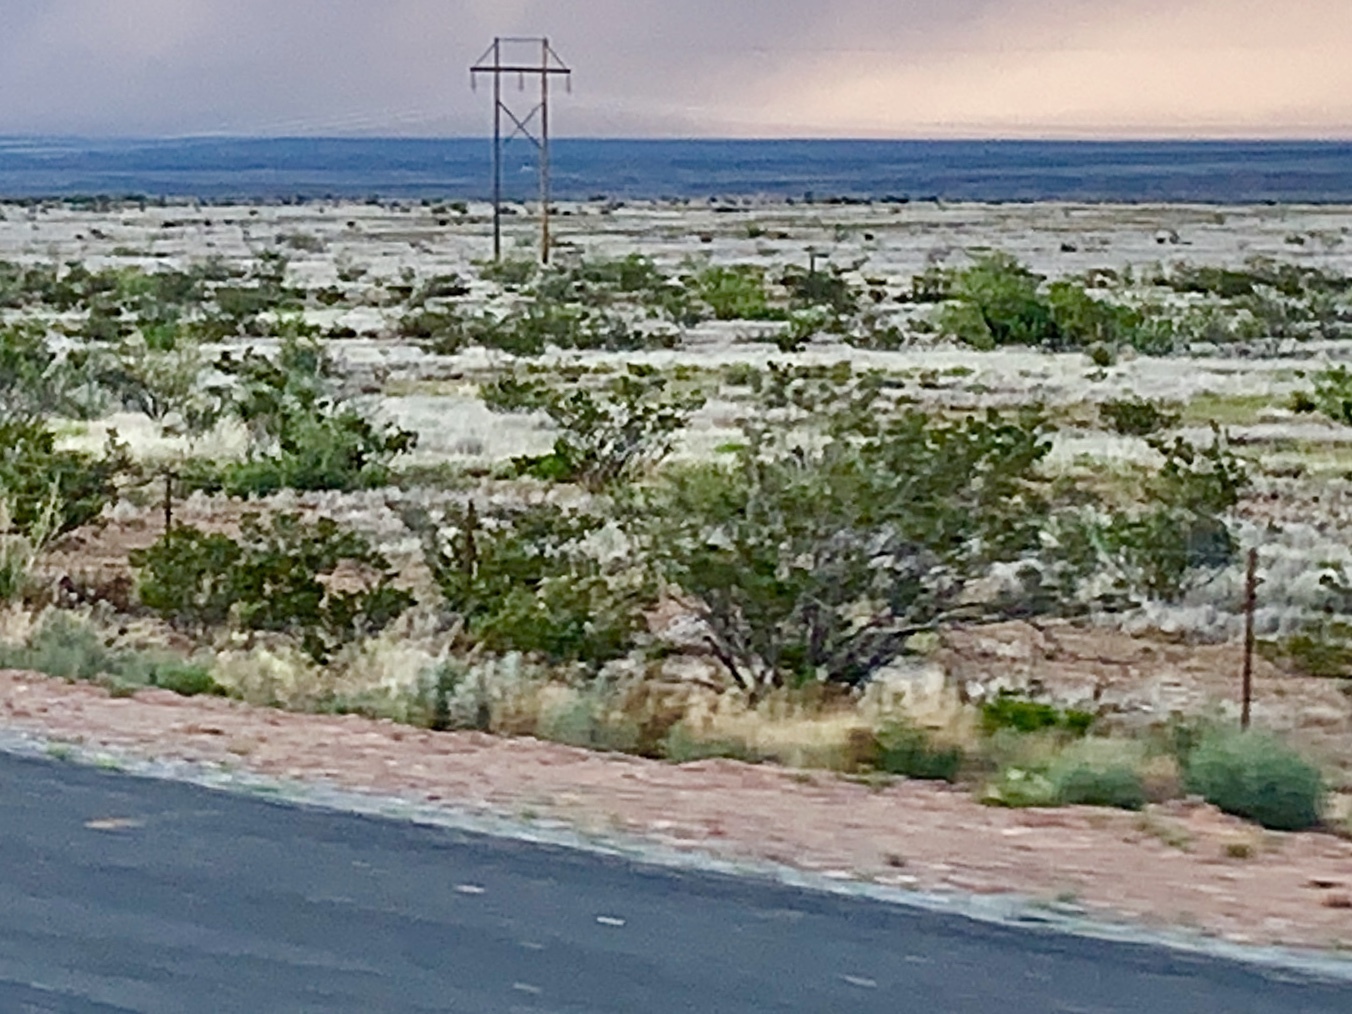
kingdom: Plantae
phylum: Tracheophyta
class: Magnoliopsida
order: Zygophyllales
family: Zygophyllaceae
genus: Larrea
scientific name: Larrea tridentata
